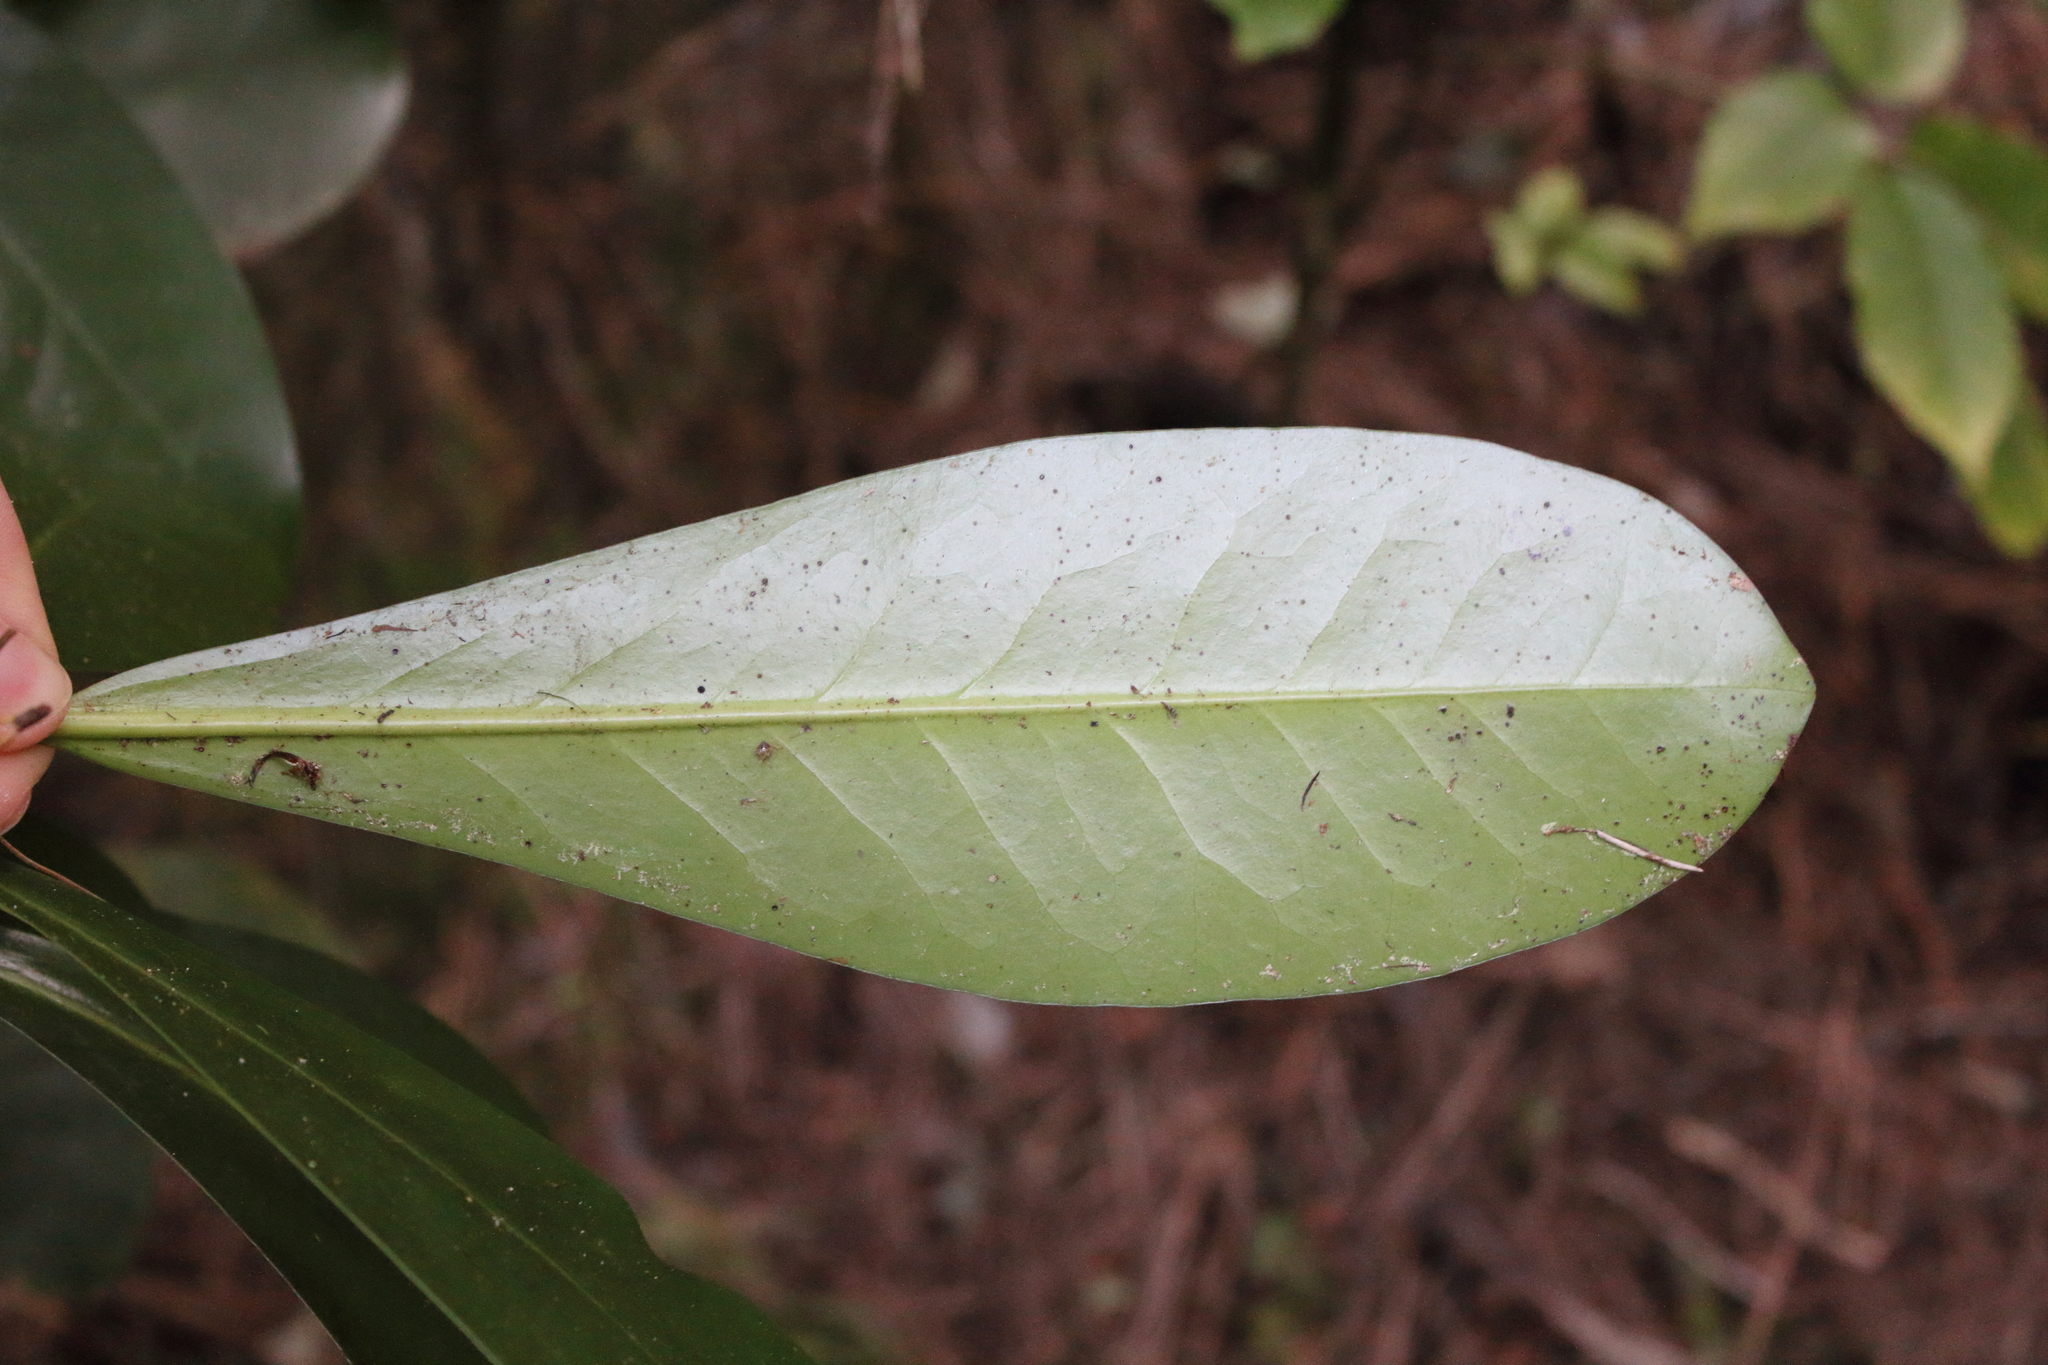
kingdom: Plantae
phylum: Tracheophyta
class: Magnoliopsida
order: Cucurbitales
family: Corynocarpaceae
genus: Corynocarpus
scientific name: Corynocarpus laevigatus
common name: New zealand laurel
